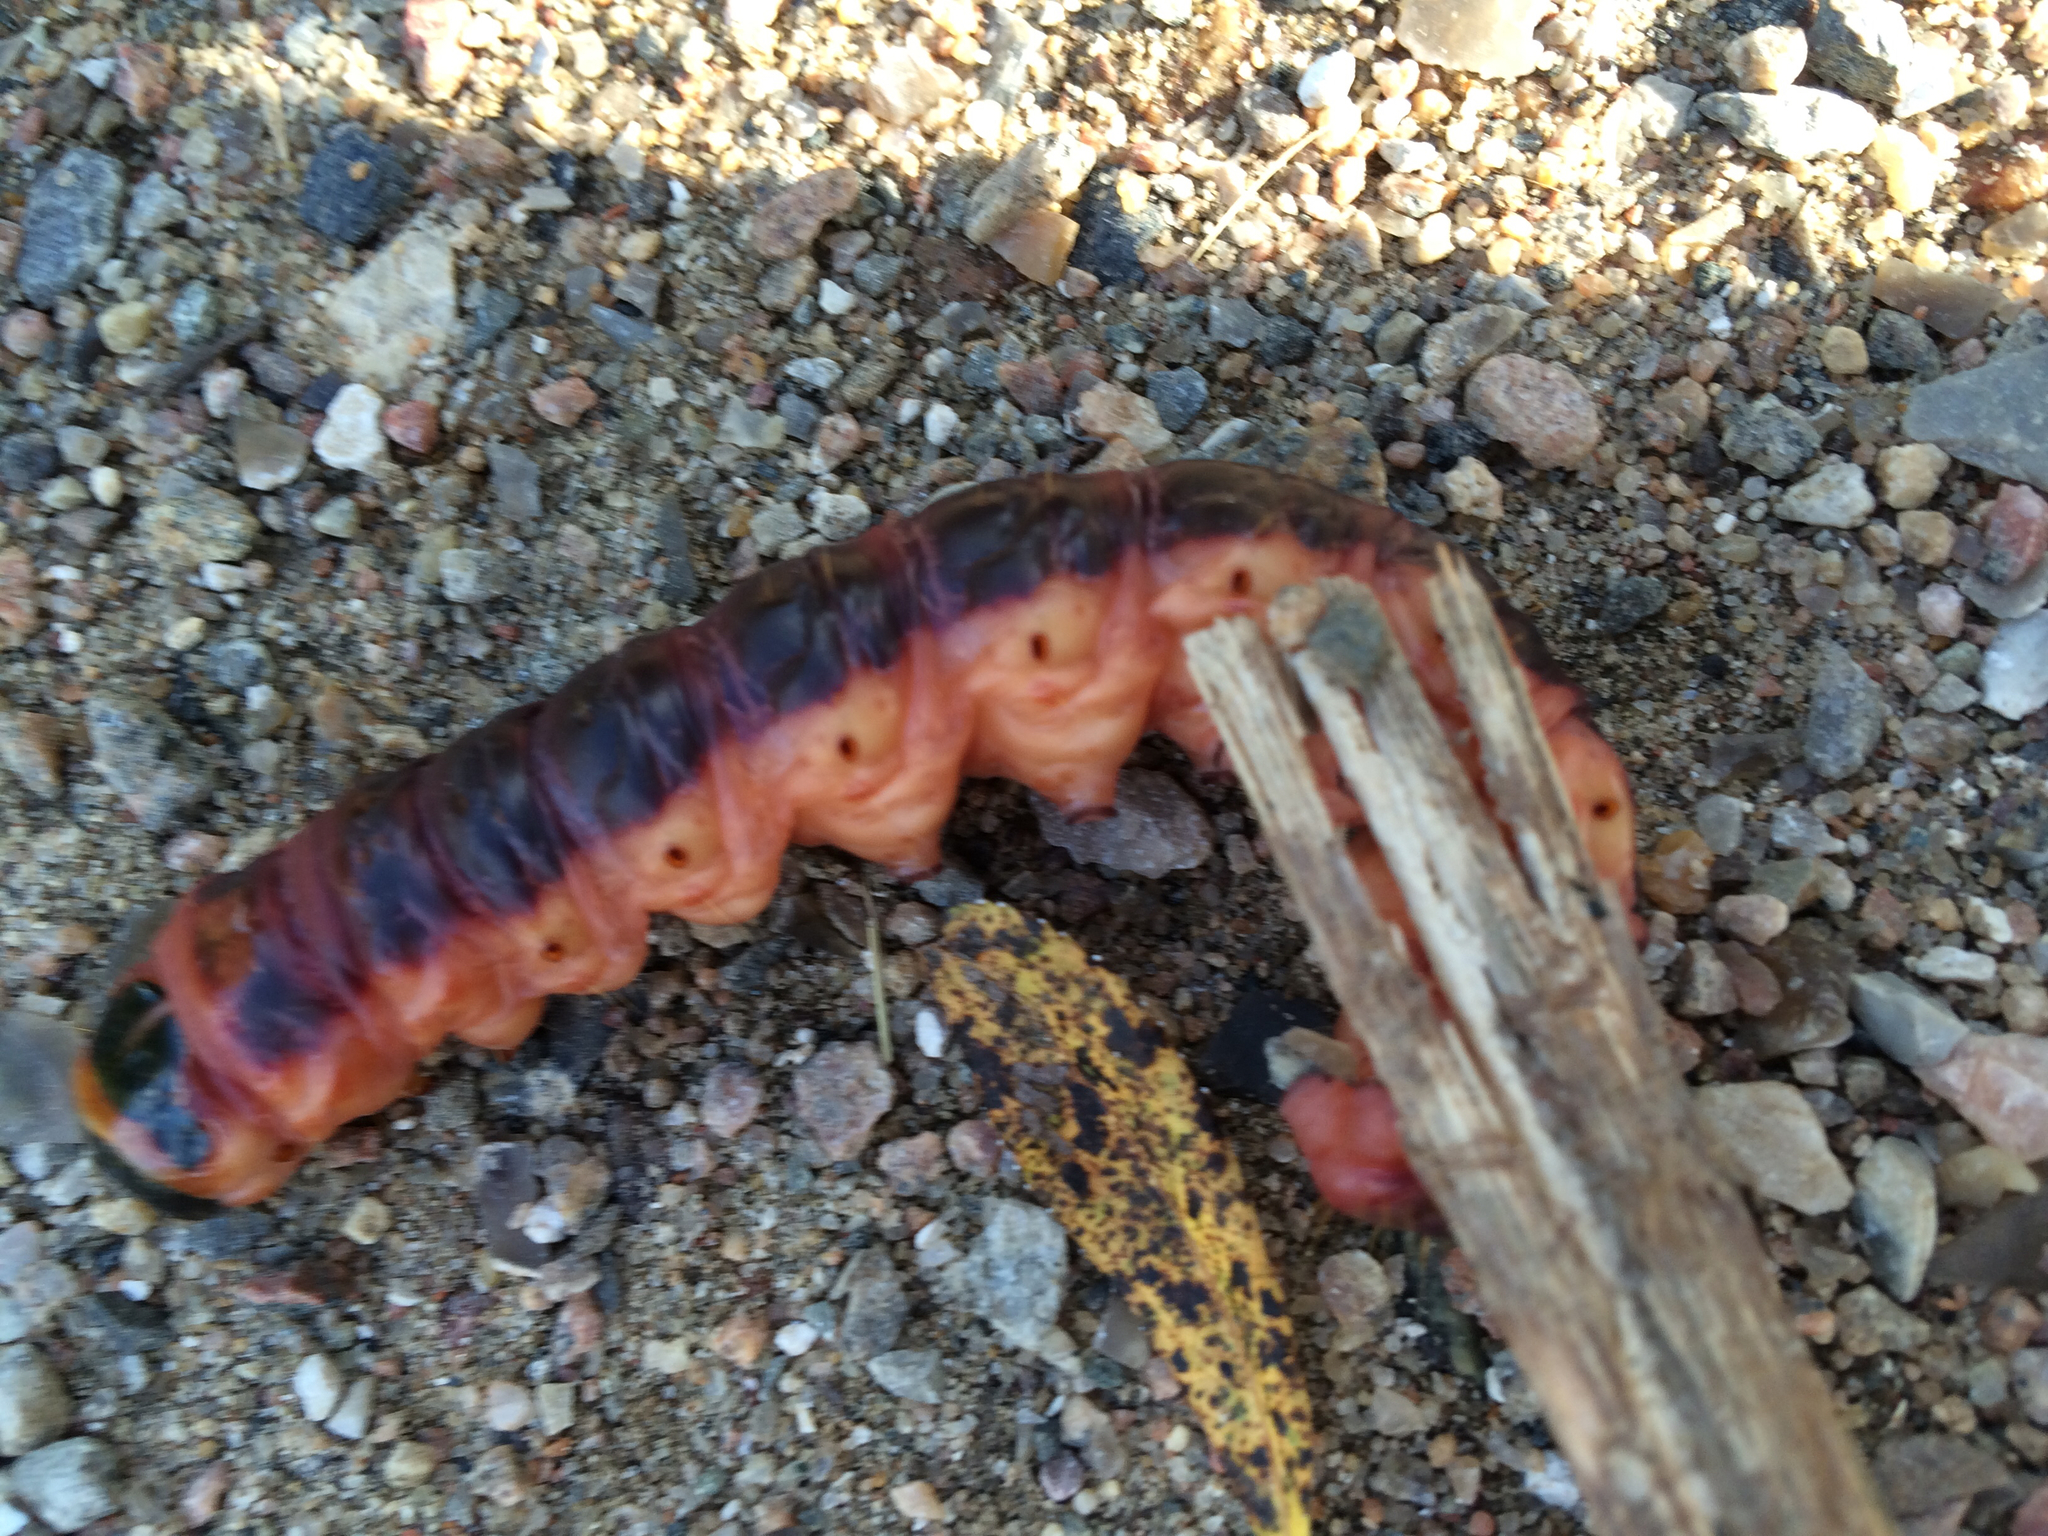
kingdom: Animalia
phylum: Arthropoda
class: Insecta
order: Lepidoptera
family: Cossidae
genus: Cossus
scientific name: Cossus cossus
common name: Goat moth
